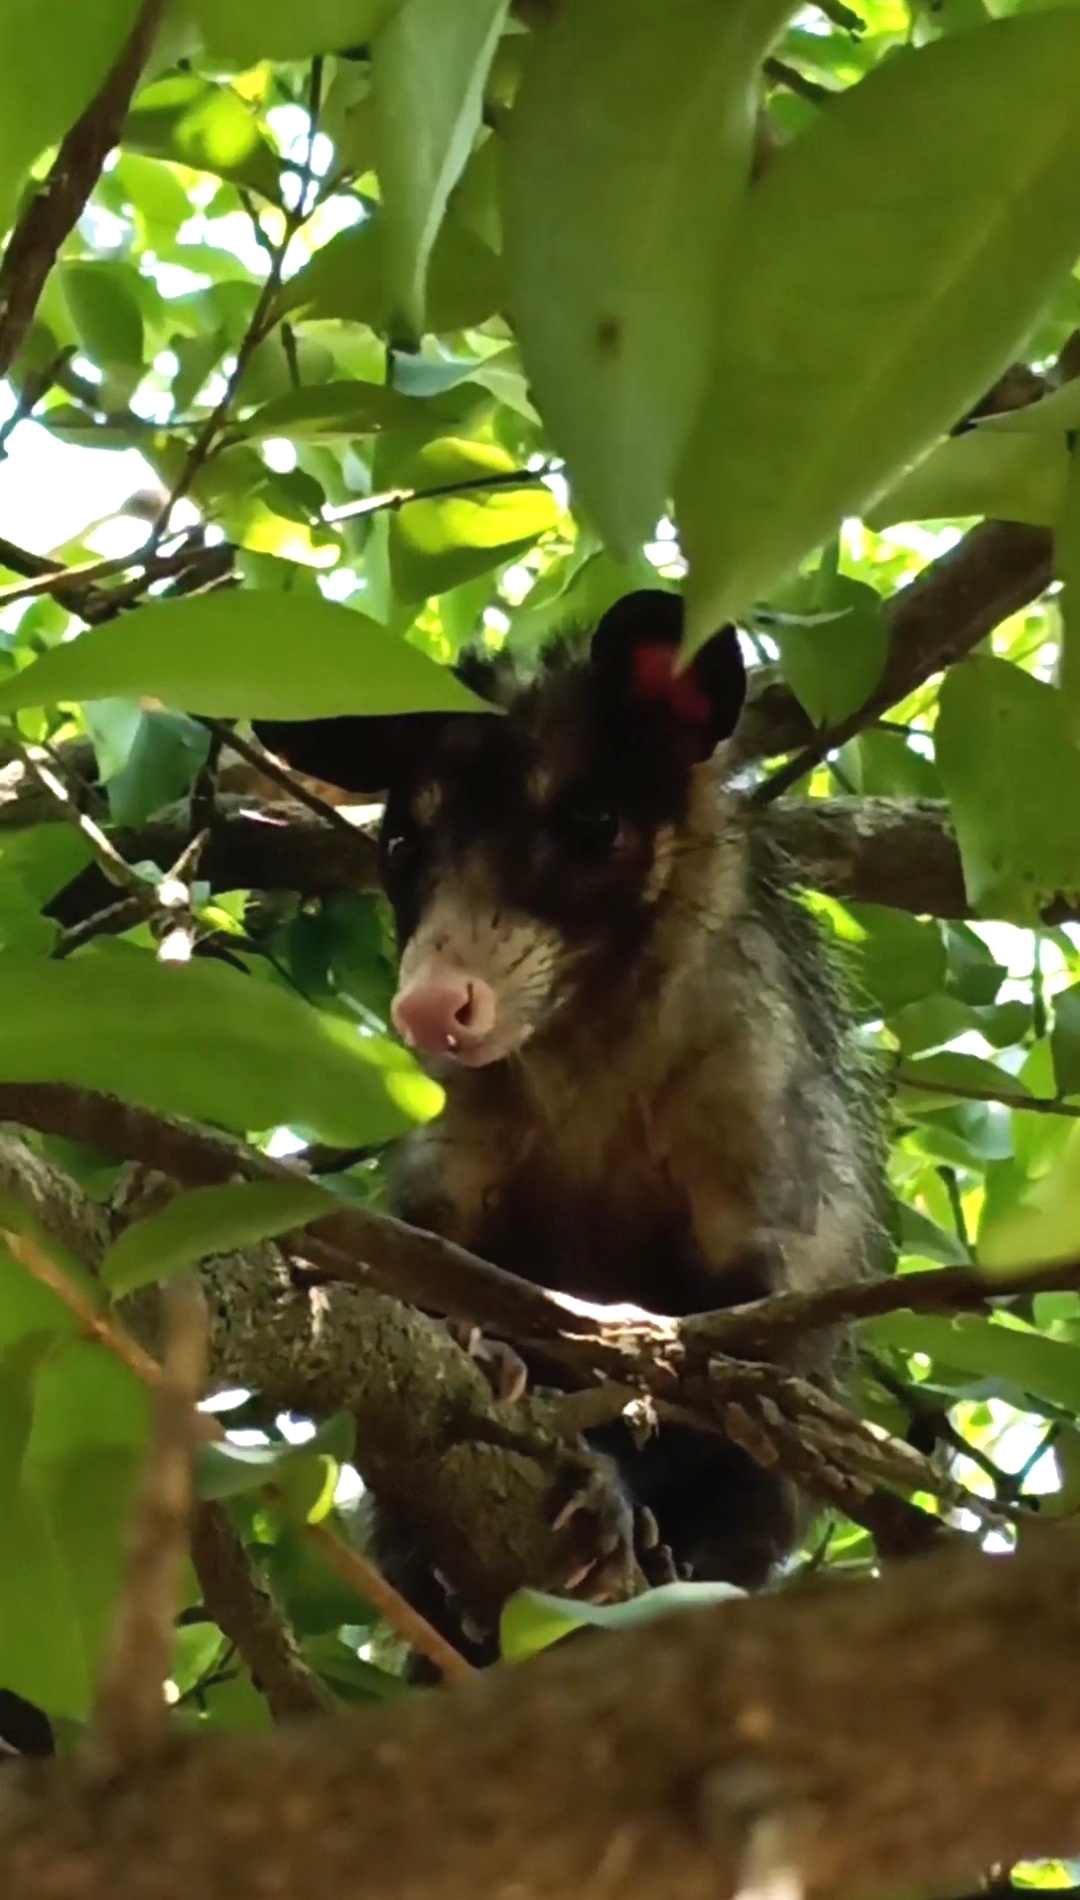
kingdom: Animalia
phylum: Chordata
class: Mammalia
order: Didelphimorphia
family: Didelphidae
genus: Didelphis
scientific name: Didelphis aurita
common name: Big-eared opossum
